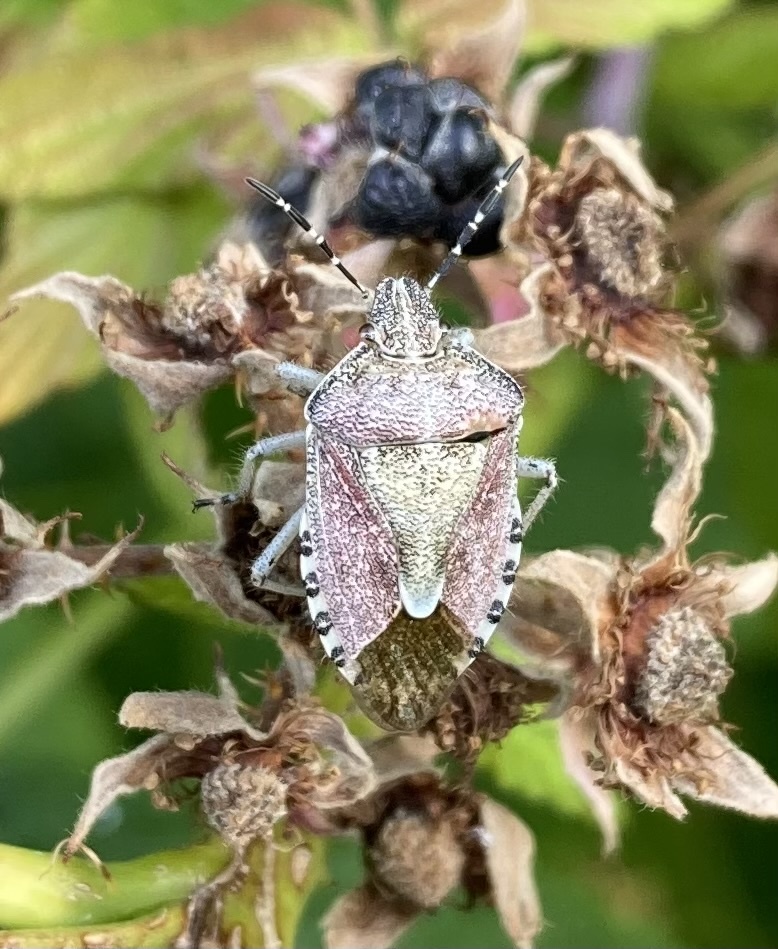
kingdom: Animalia
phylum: Arthropoda
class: Insecta
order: Hemiptera
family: Pentatomidae
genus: Dolycoris
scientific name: Dolycoris baccarum
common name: Sloe bug
